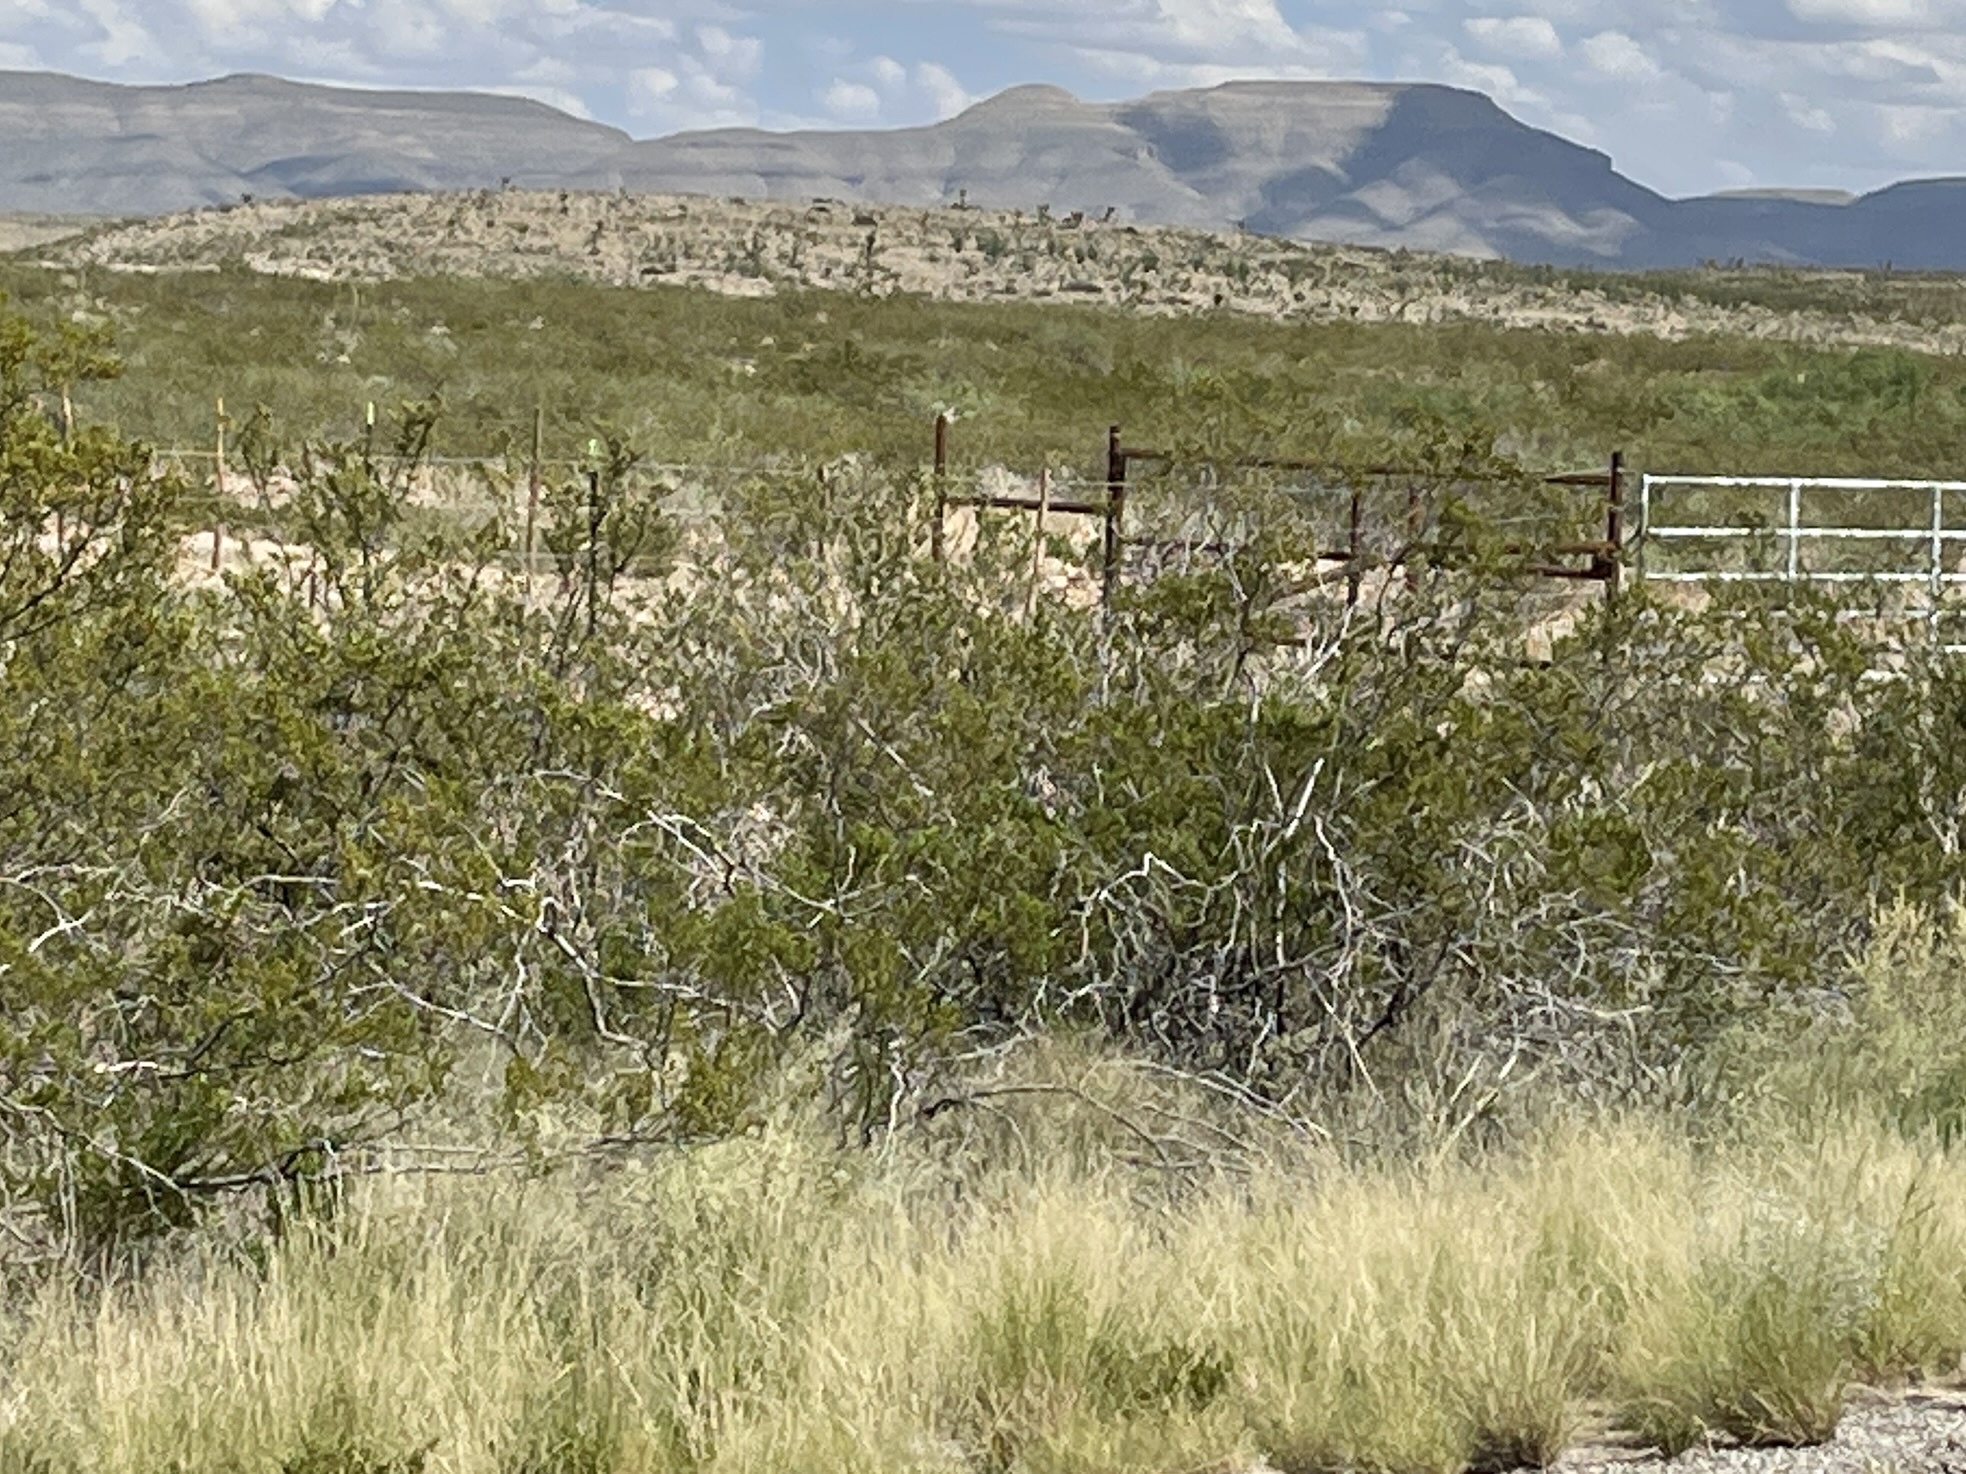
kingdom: Plantae
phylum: Tracheophyta
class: Magnoliopsida
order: Zygophyllales
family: Zygophyllaceae
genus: Larrea
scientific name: Larrea tridentata
